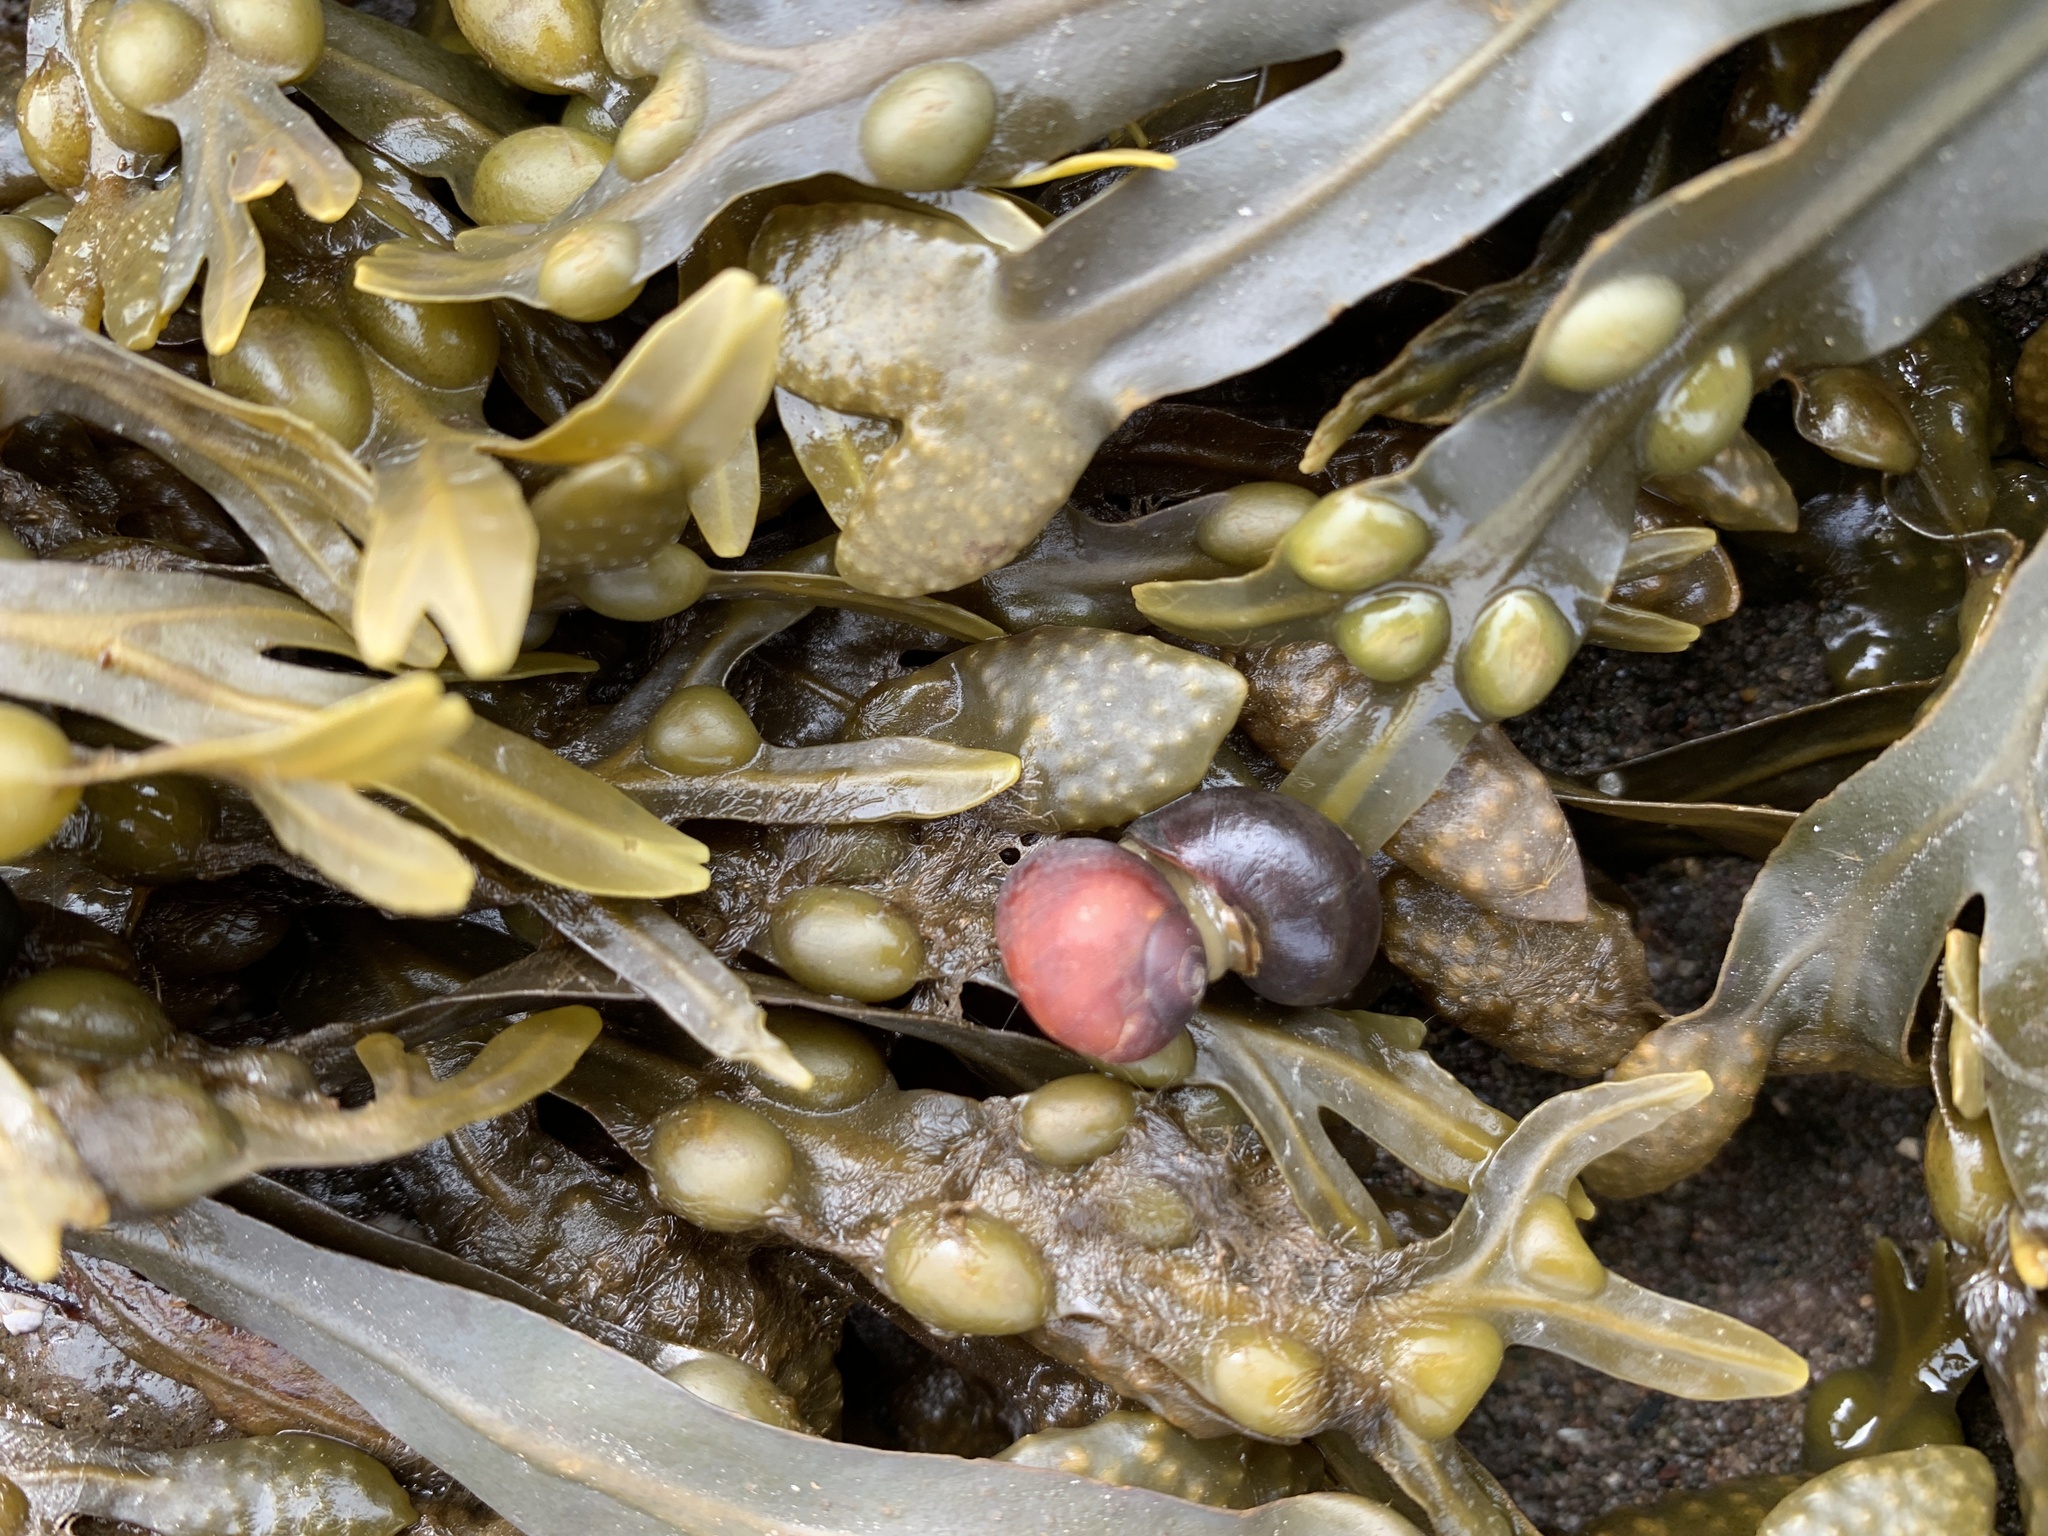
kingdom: Animalia
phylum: Mollusca
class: Gastropoda
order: Littorinimorpha
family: Littorinidae
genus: Littorina
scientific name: Littorina obtusata
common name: Flat periwinkle
